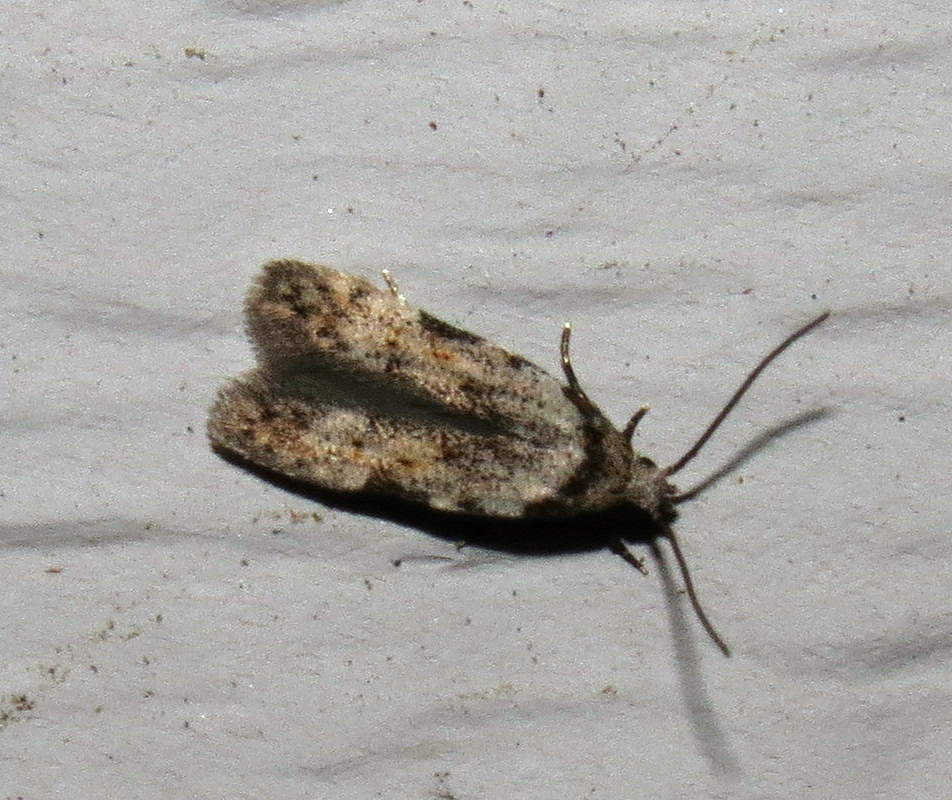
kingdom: Animalia
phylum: Arthropoda
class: Insecta
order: Lepidoptera
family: Autostichidae
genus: Taygete
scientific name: Taygete attributella
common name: Triangle-marked twirler moth
